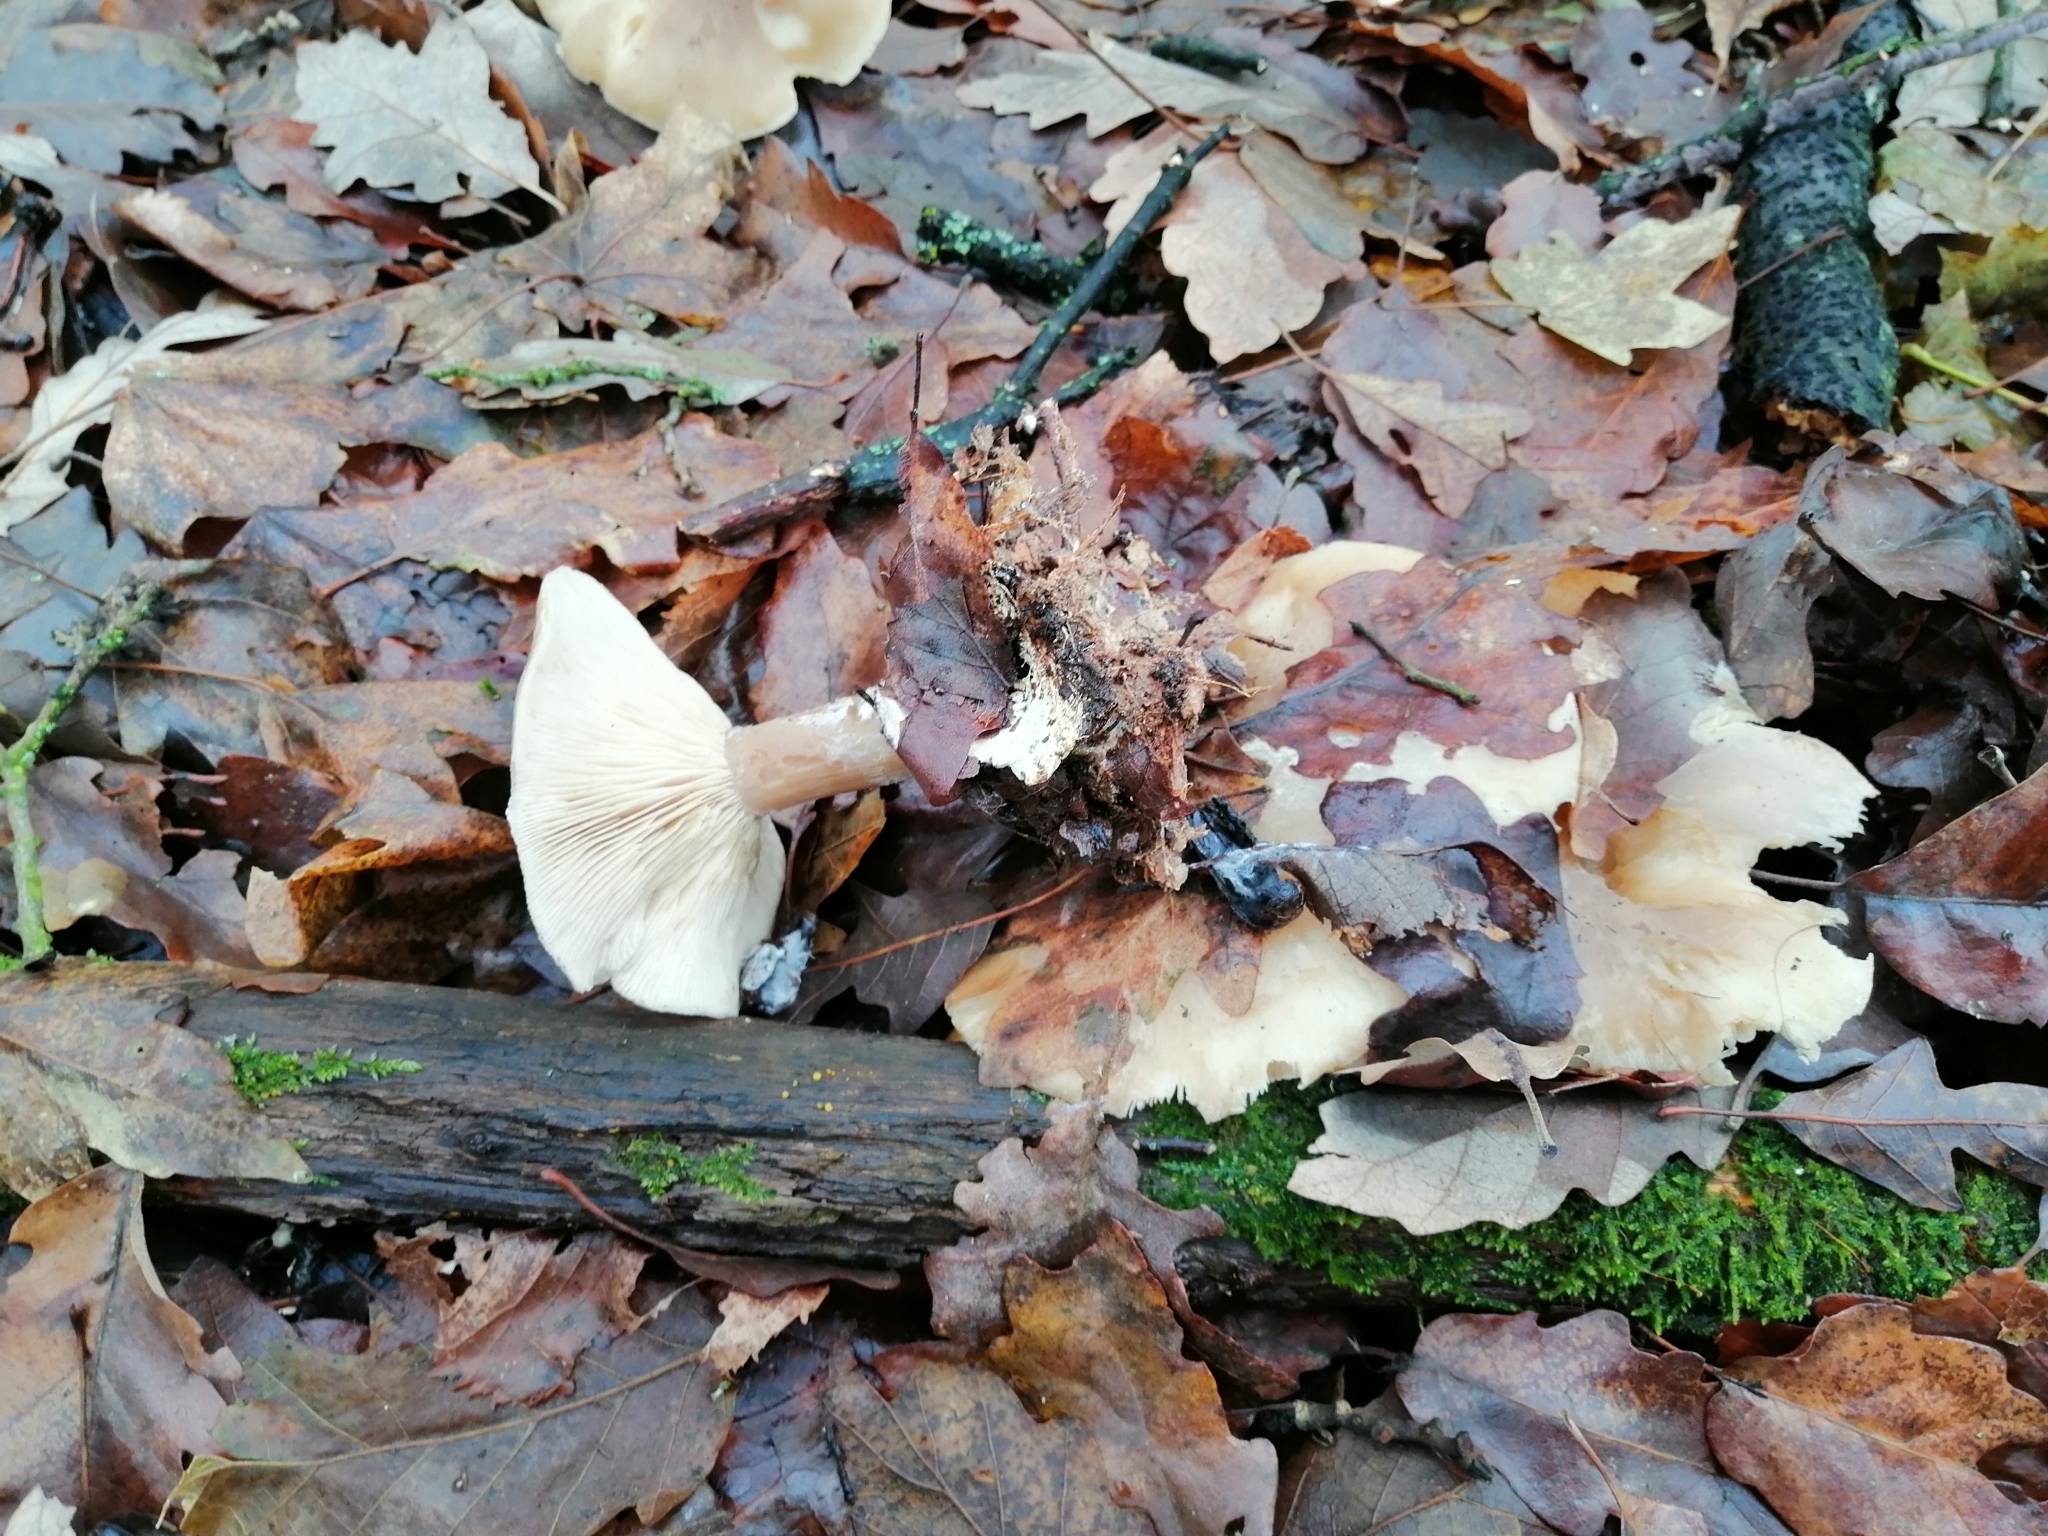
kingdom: Fungi
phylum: Basidiomycota
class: Agaricomycetes
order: Agaricales
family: Tricholomataceae
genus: Clitocybe
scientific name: Clitocybe nebularis
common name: Clouded agaric
